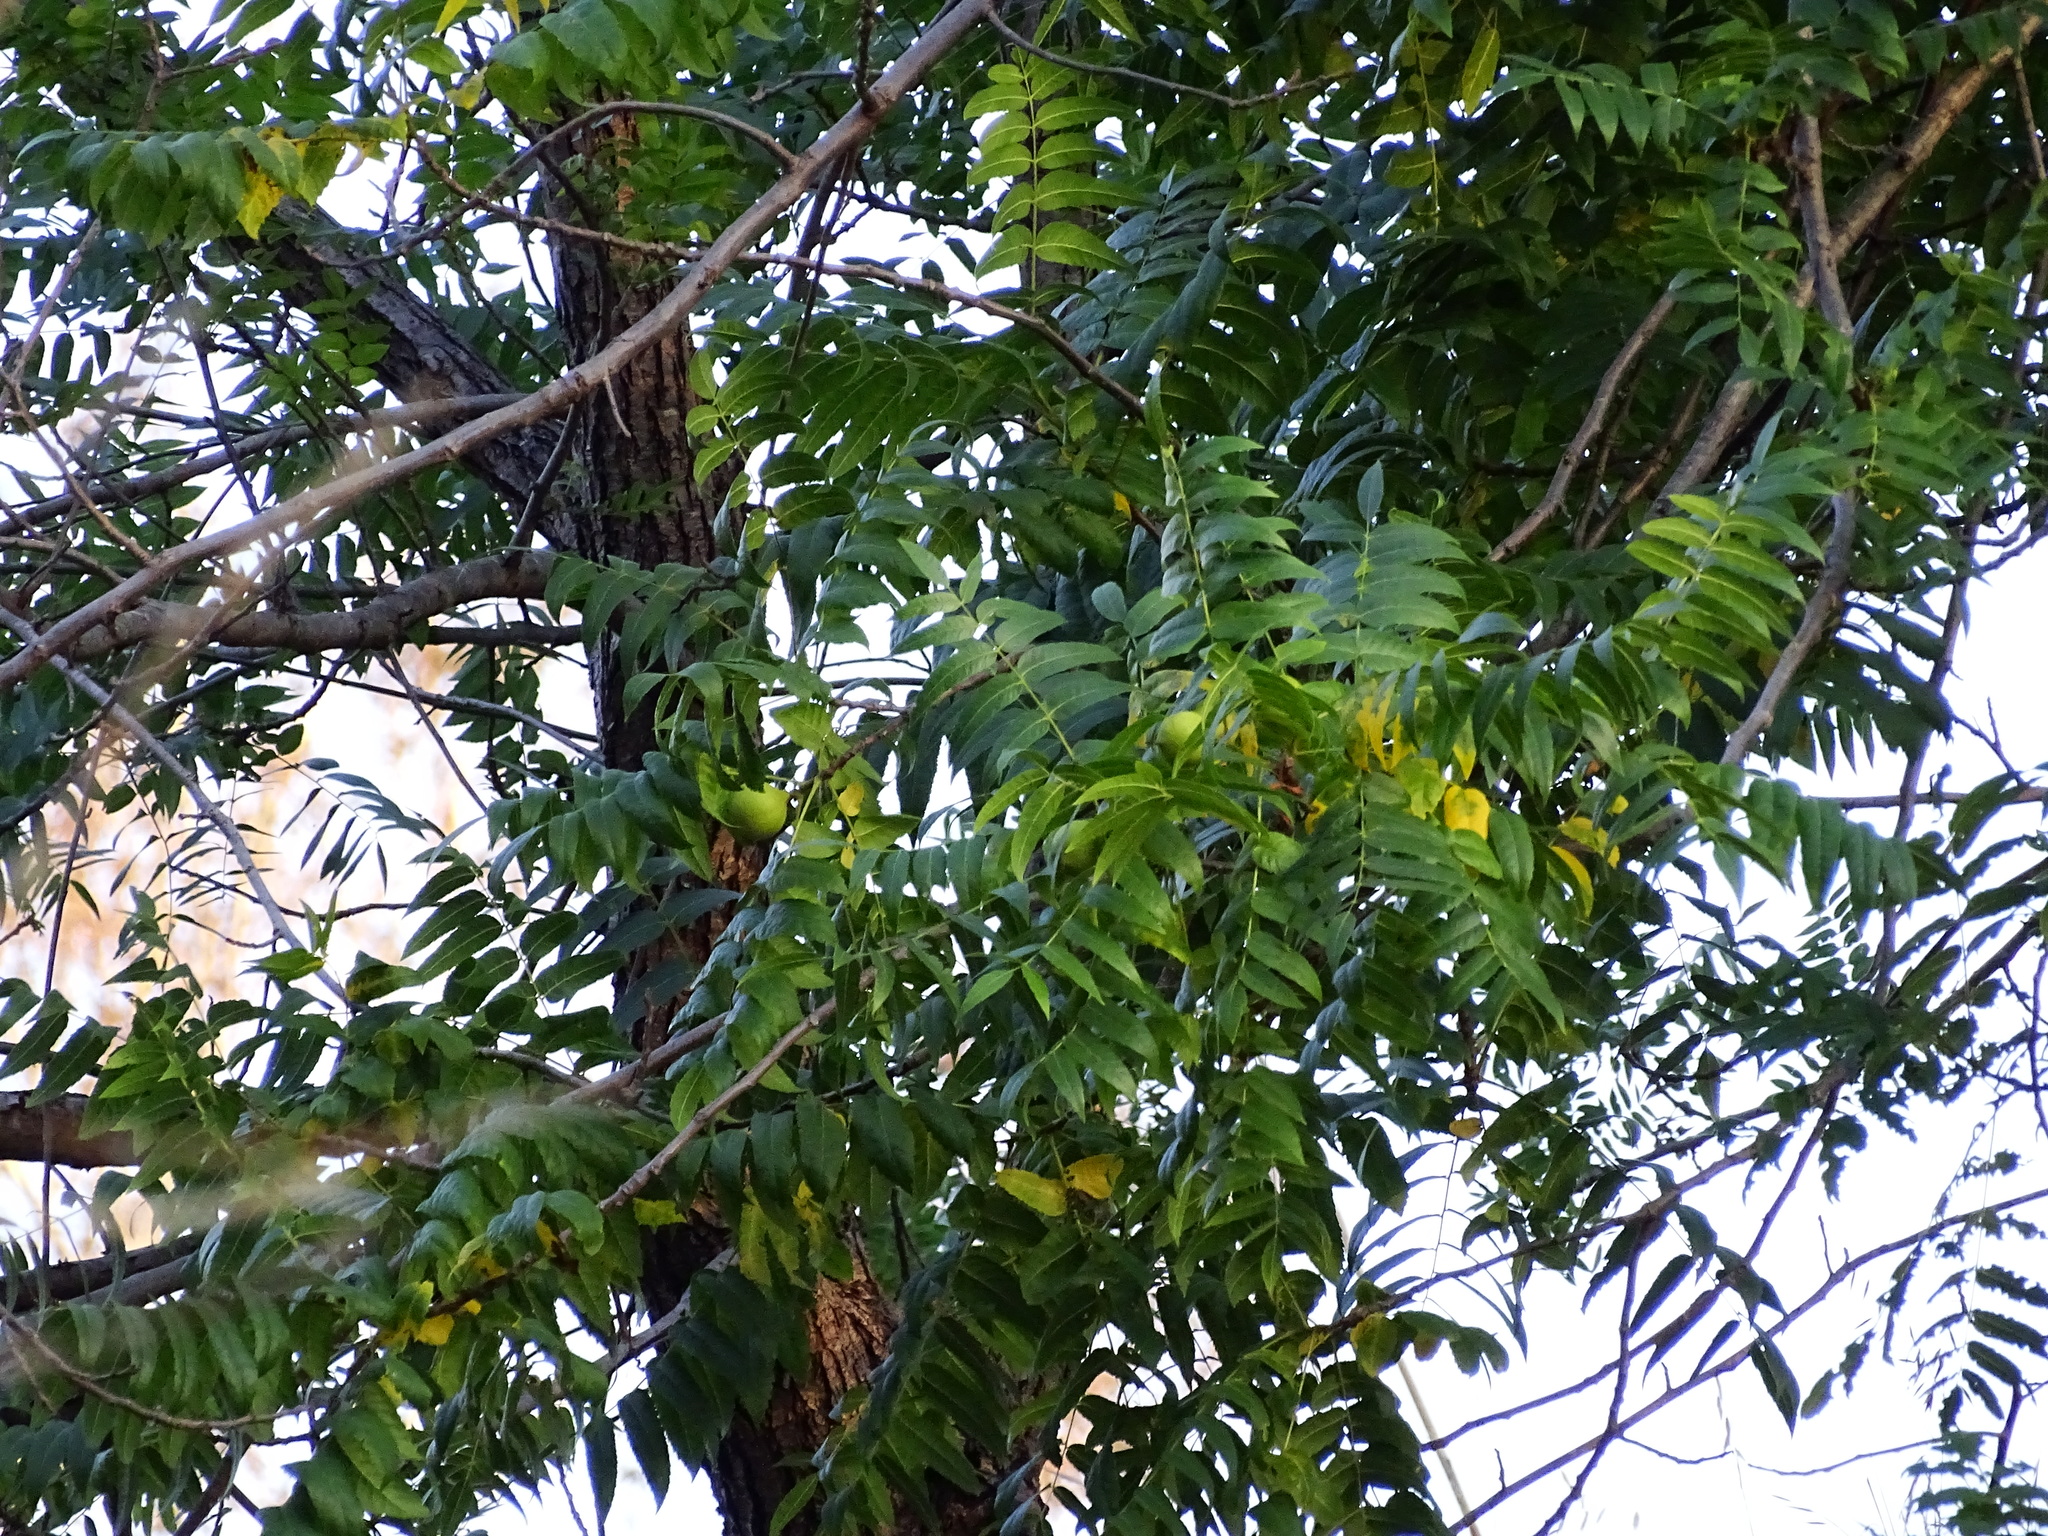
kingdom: Plantae
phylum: Tracheophyta
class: Magnoliopsida
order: Fagales
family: Juglandaceae
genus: Juglans
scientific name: Juglans californica
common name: Southern california black walnut
